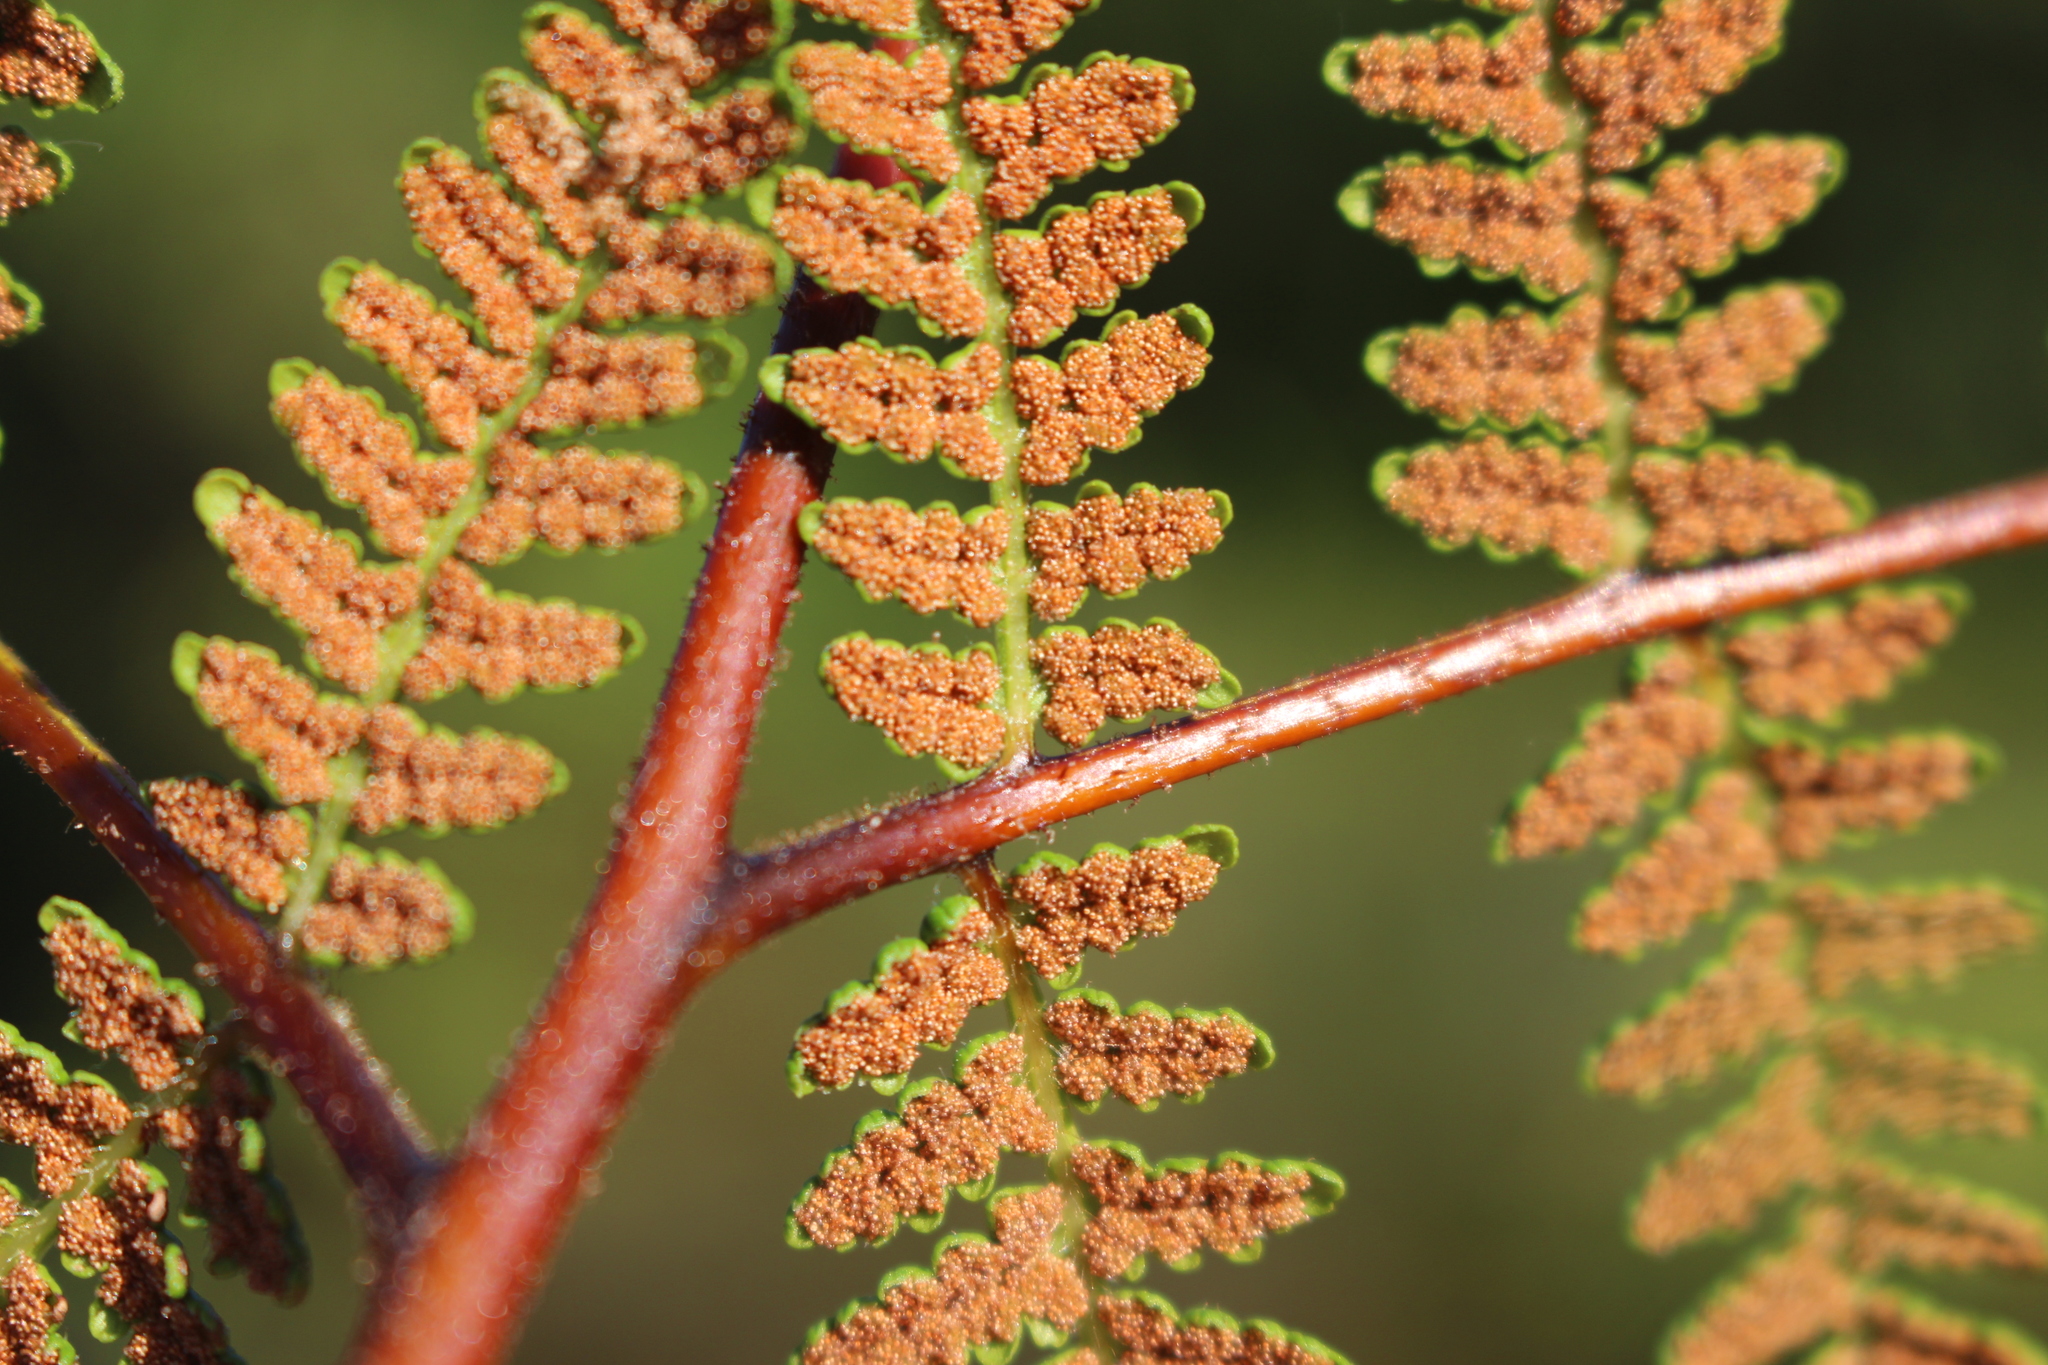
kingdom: Plantae
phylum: Tracheophyta
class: Polypodiopsida
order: Polypodiales
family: Dennstaedtiaceae
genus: Hypolepis
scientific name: Hypolepis ambigua
